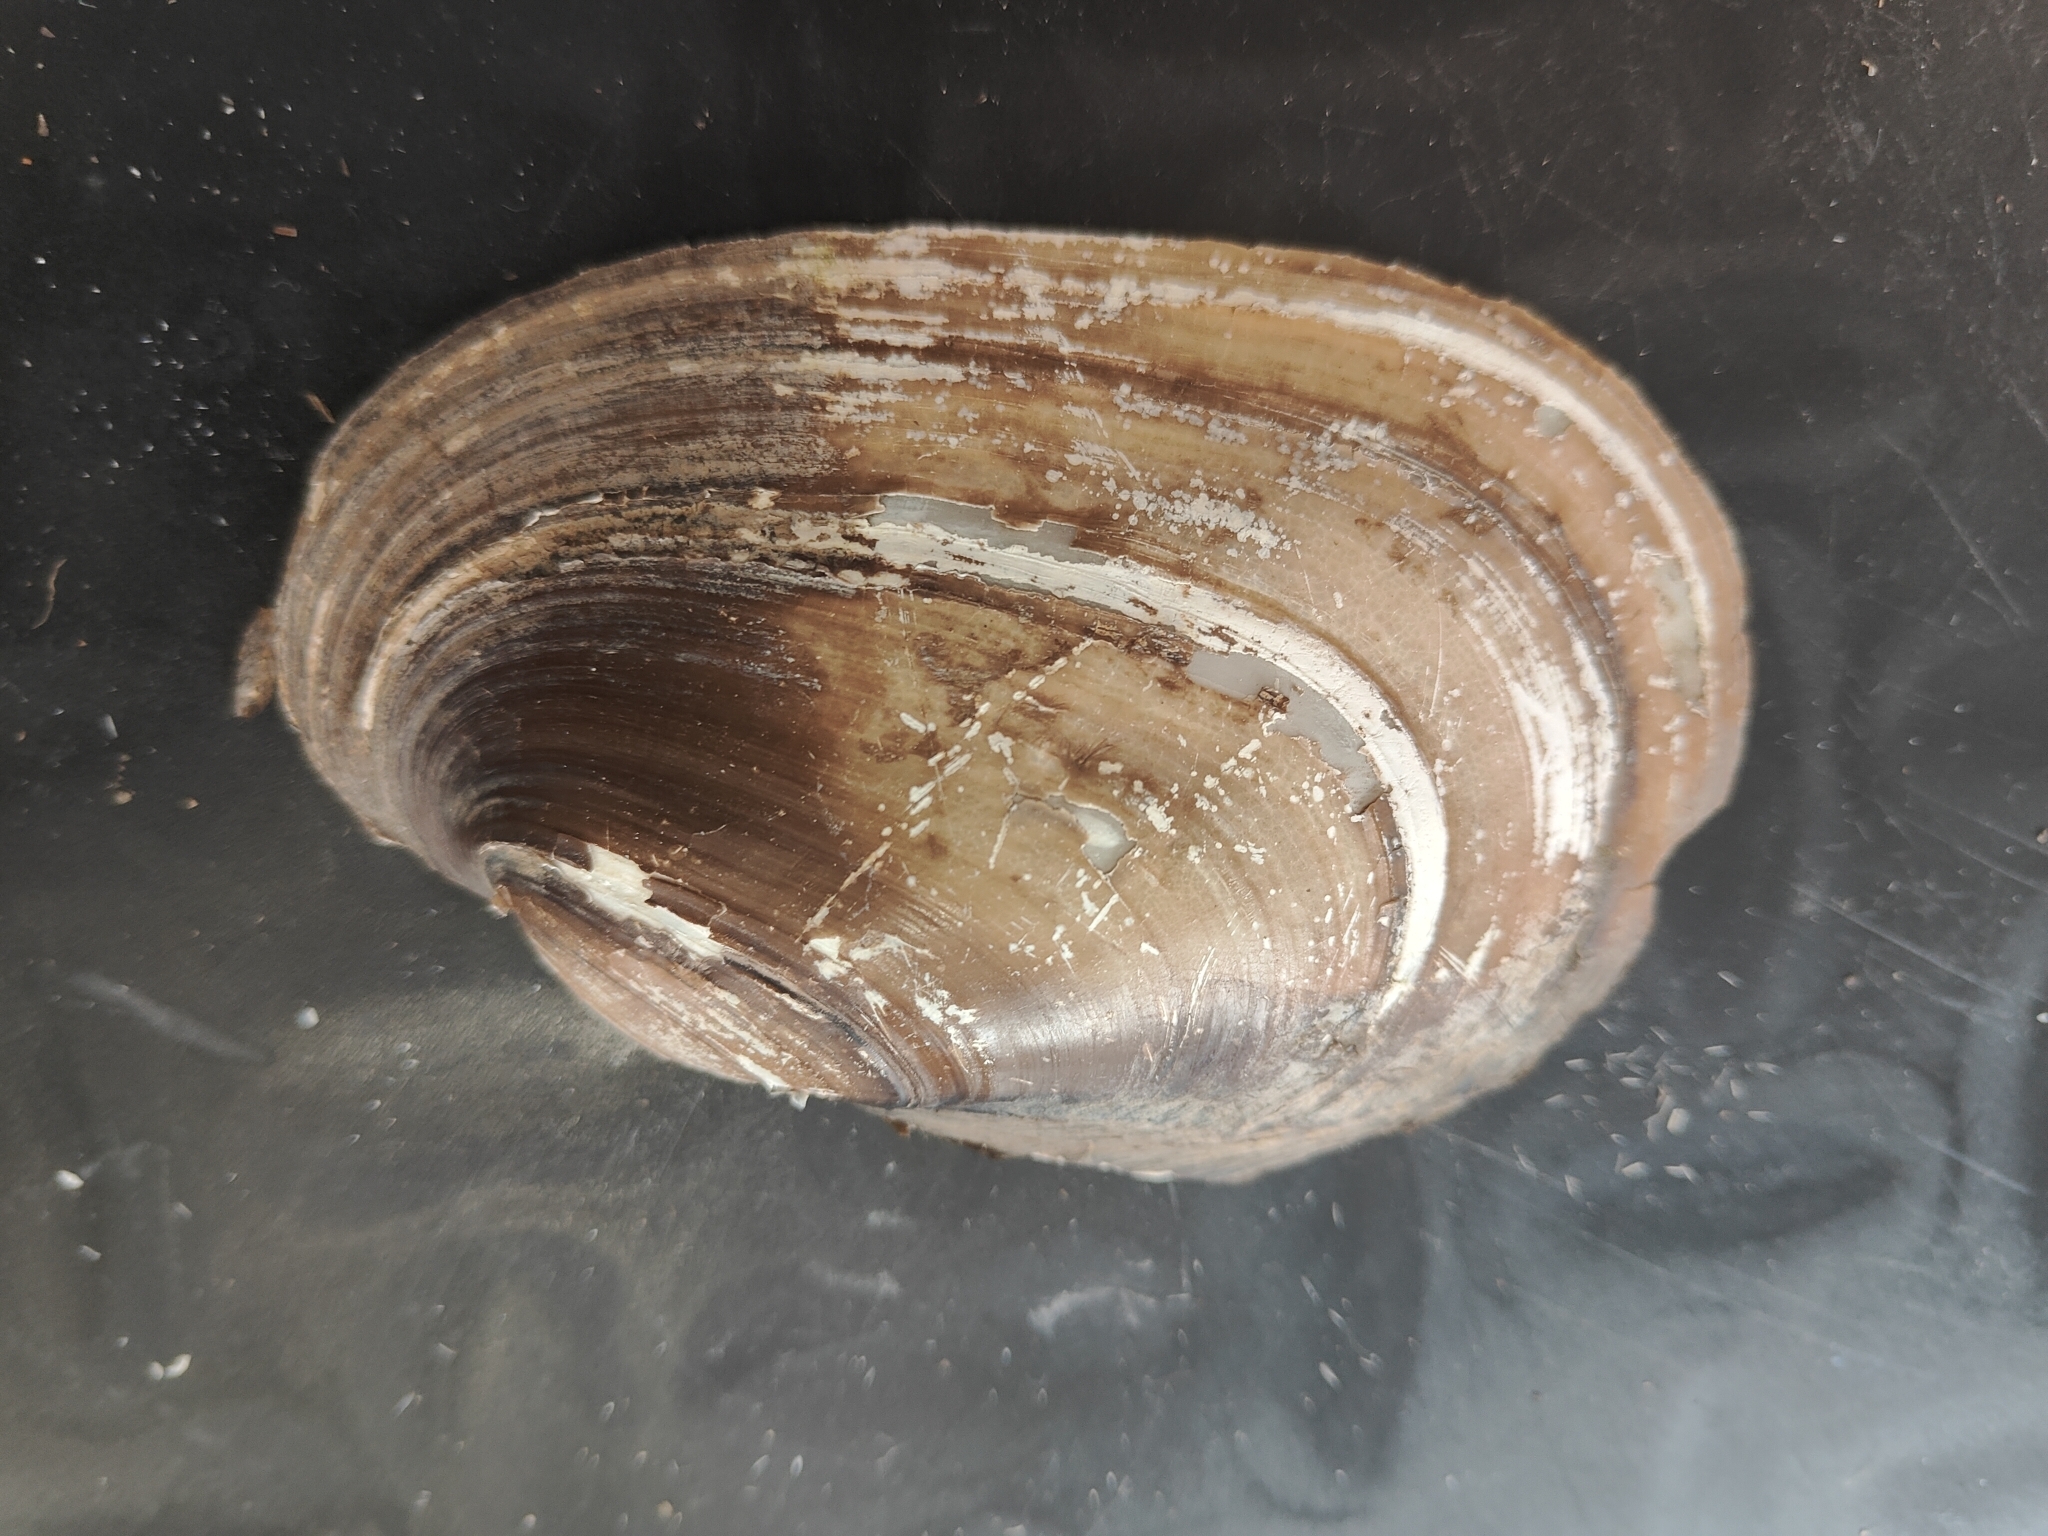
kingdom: Animalia
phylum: Mollusca
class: Bivalvia
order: Unionida
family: Unionidae
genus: Potamilus
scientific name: Potamilus fragilis
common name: Fragile papershell
